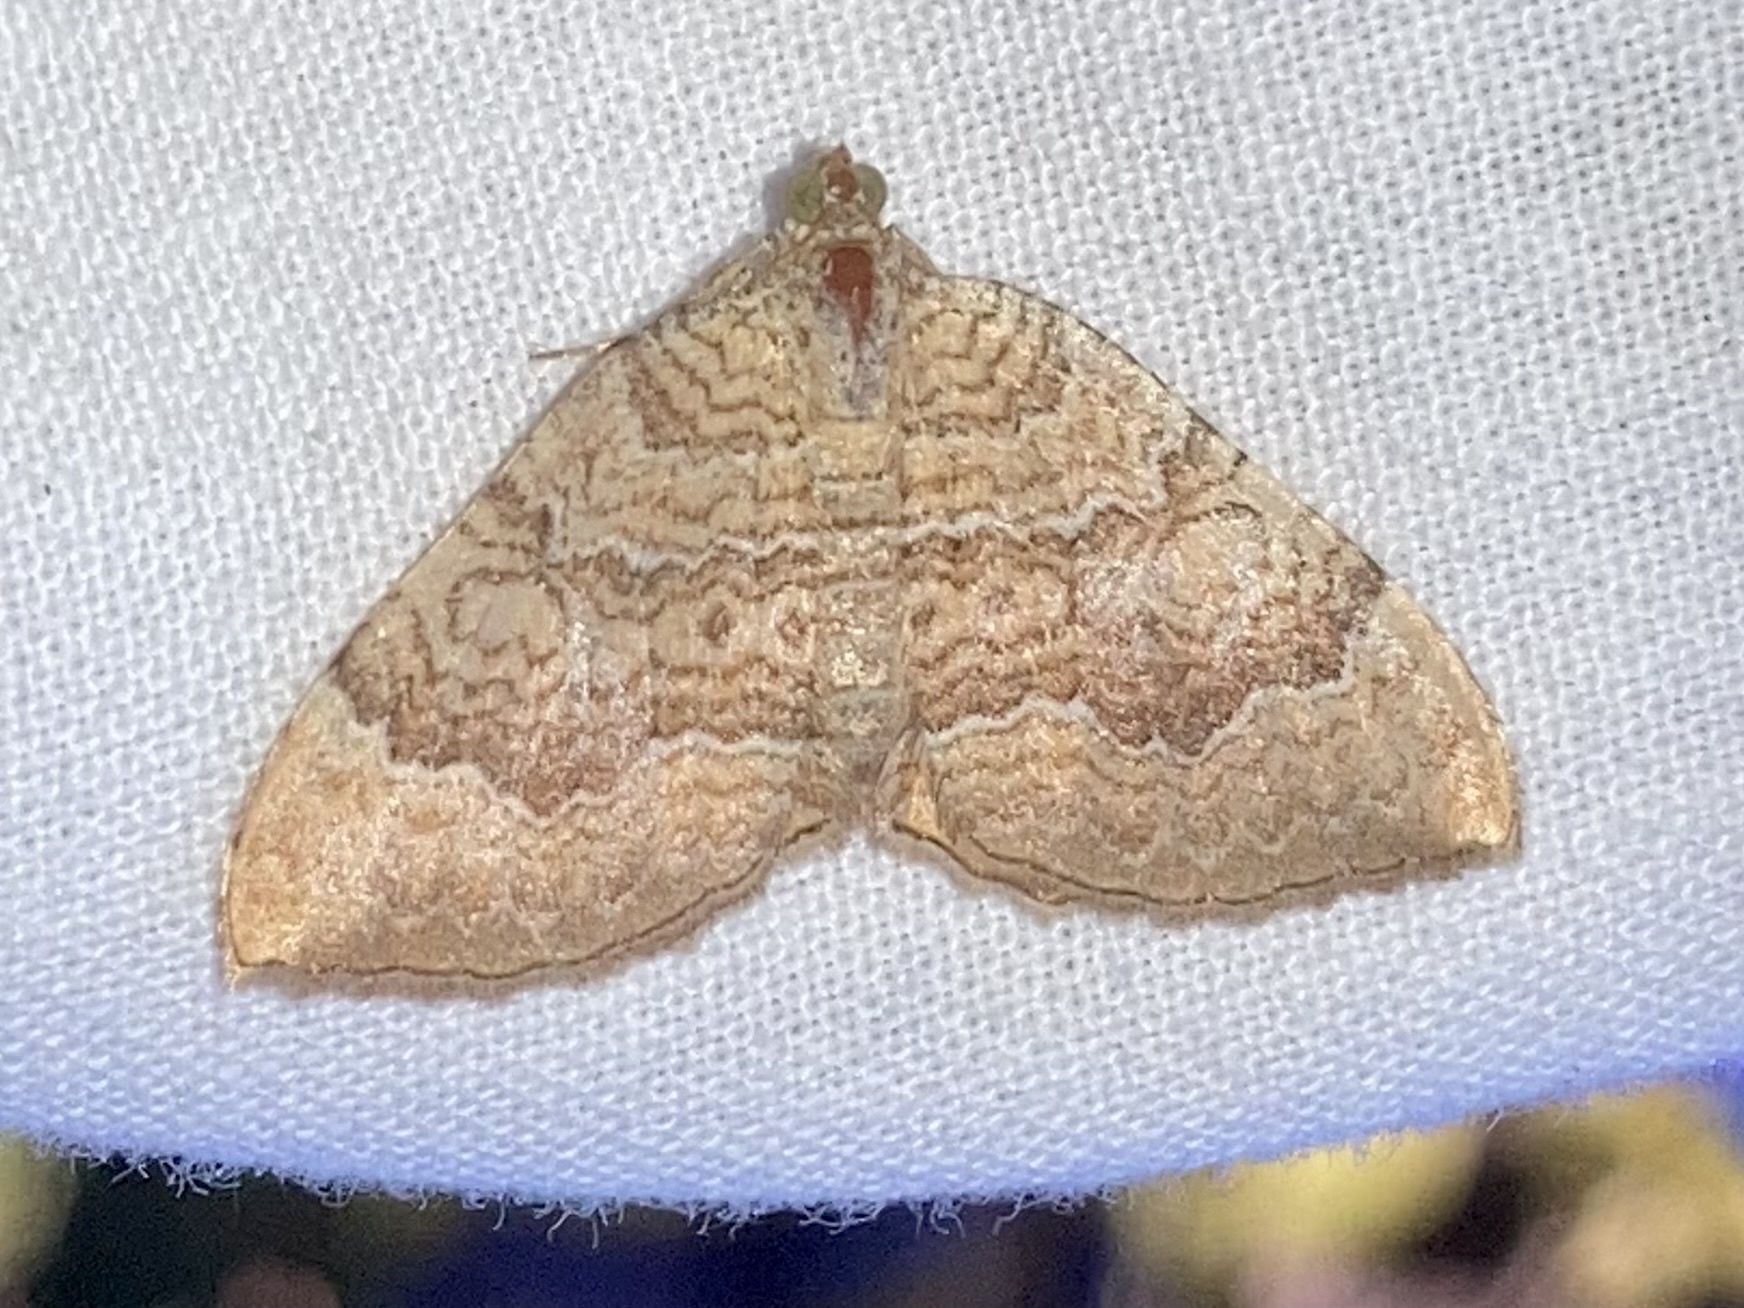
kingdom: Animalia
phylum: Arthropoda
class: Insecta
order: Lepidoptera
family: Geometridae
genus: Camptogramma
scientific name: Camptogramma bilineata
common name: Yellow shell
